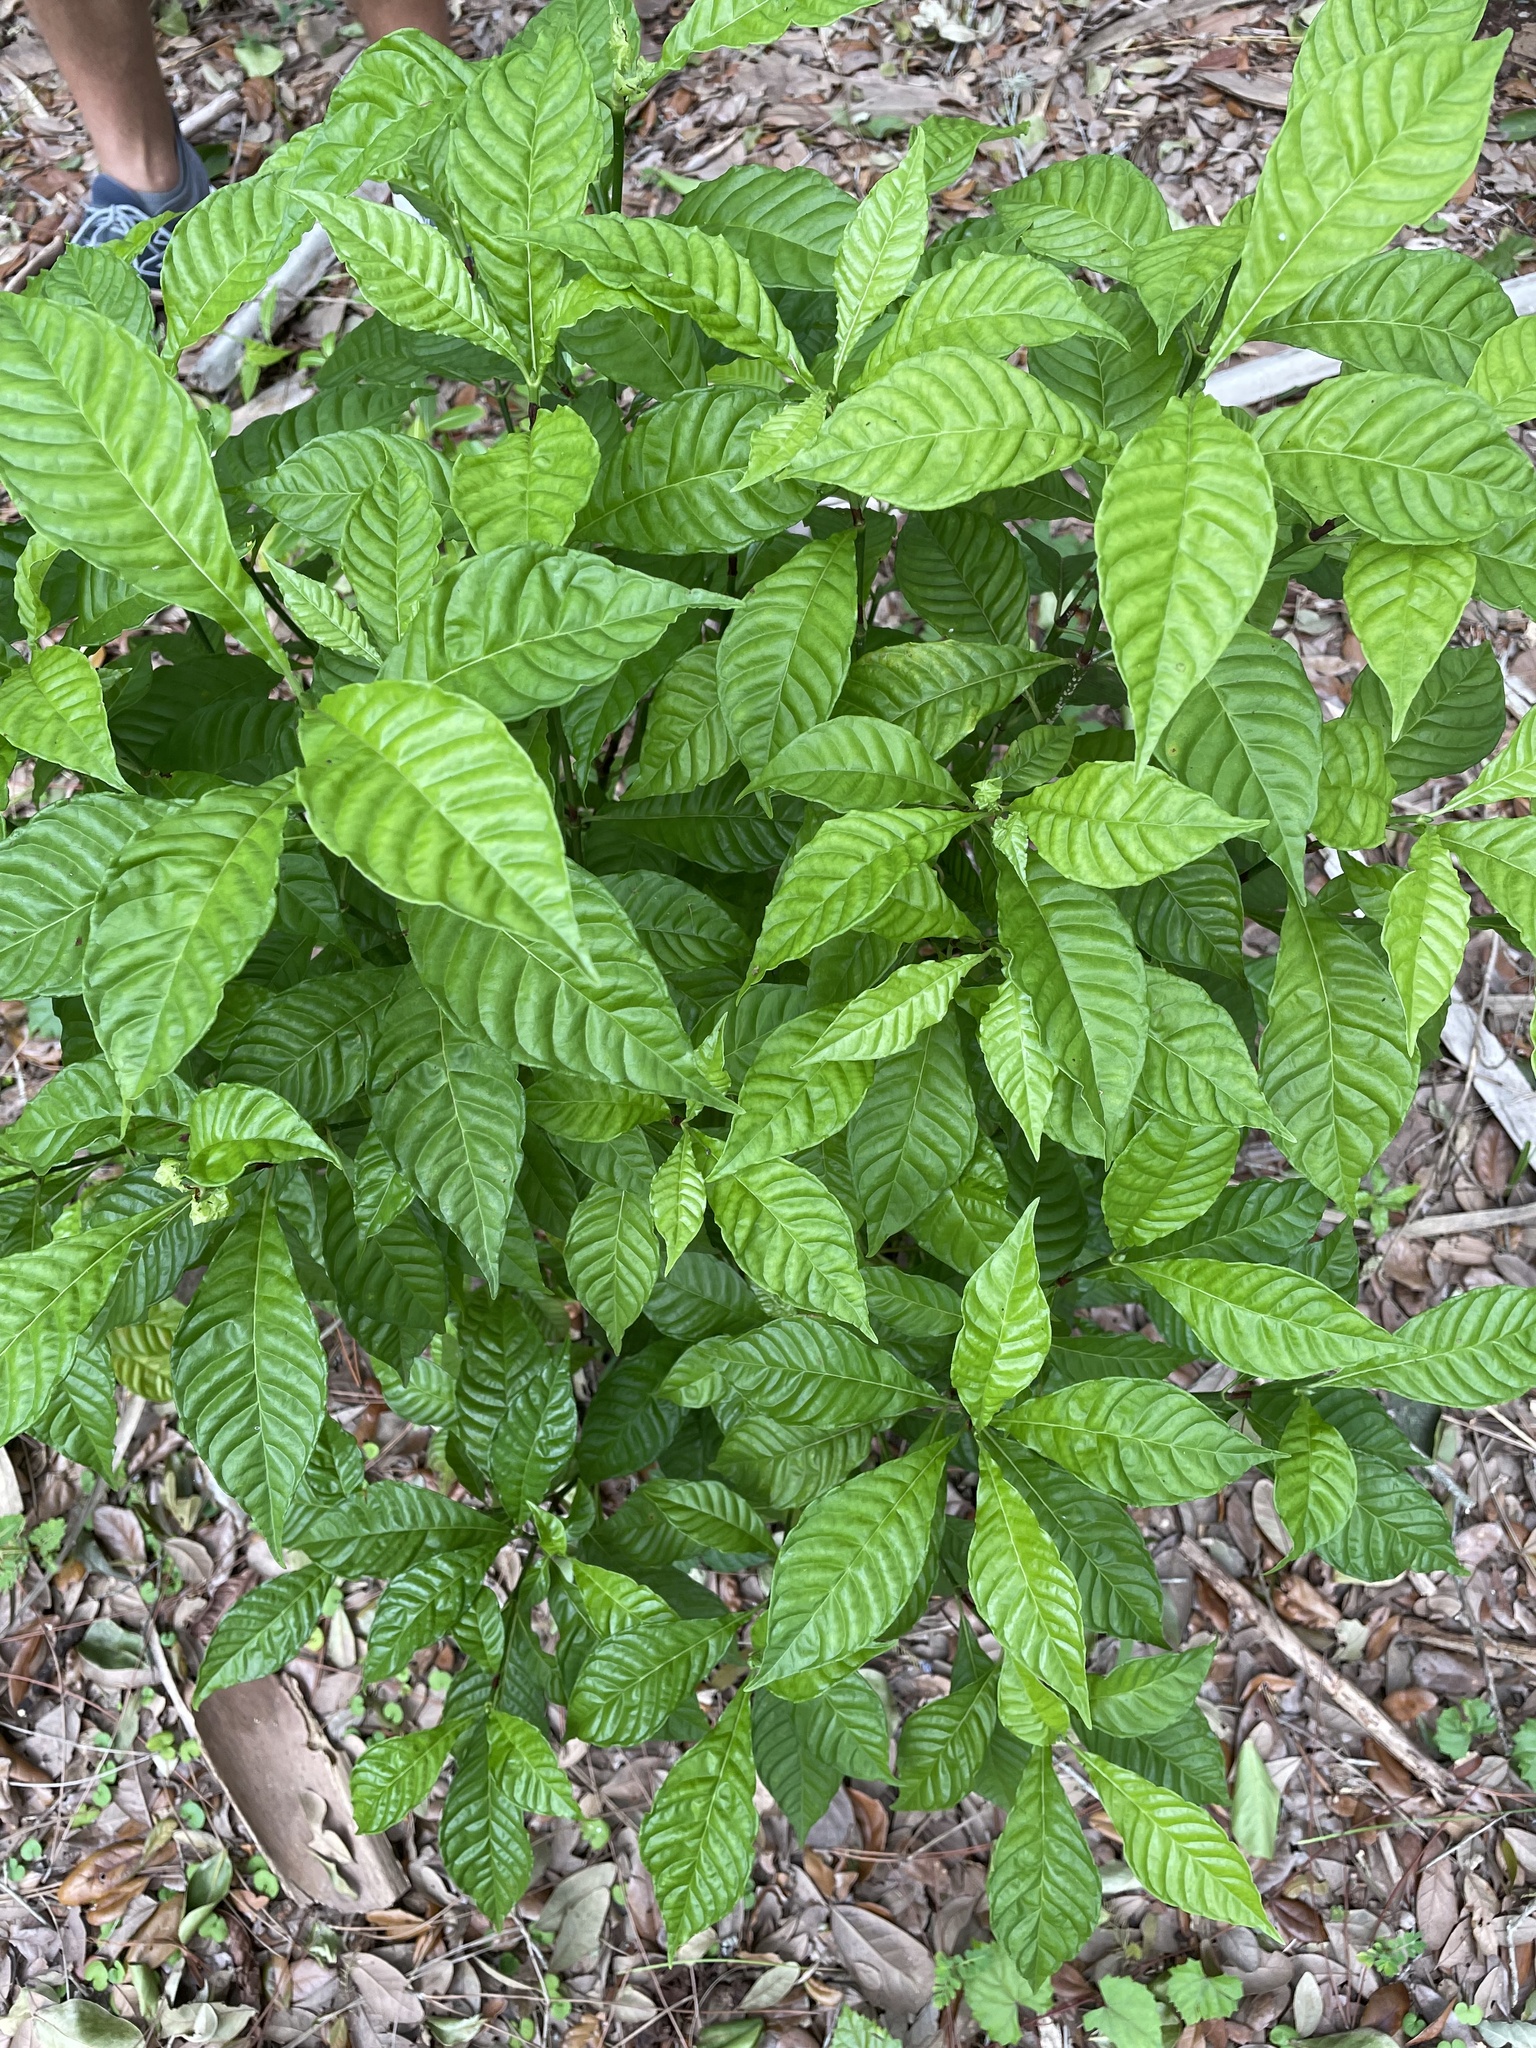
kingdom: Plantae
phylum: Tracheophyta
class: Magnoliopsida
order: Gentianales
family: Rubiaceae
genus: Psychotria
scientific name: Psychotria nervosa
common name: Bastard cankerberry
